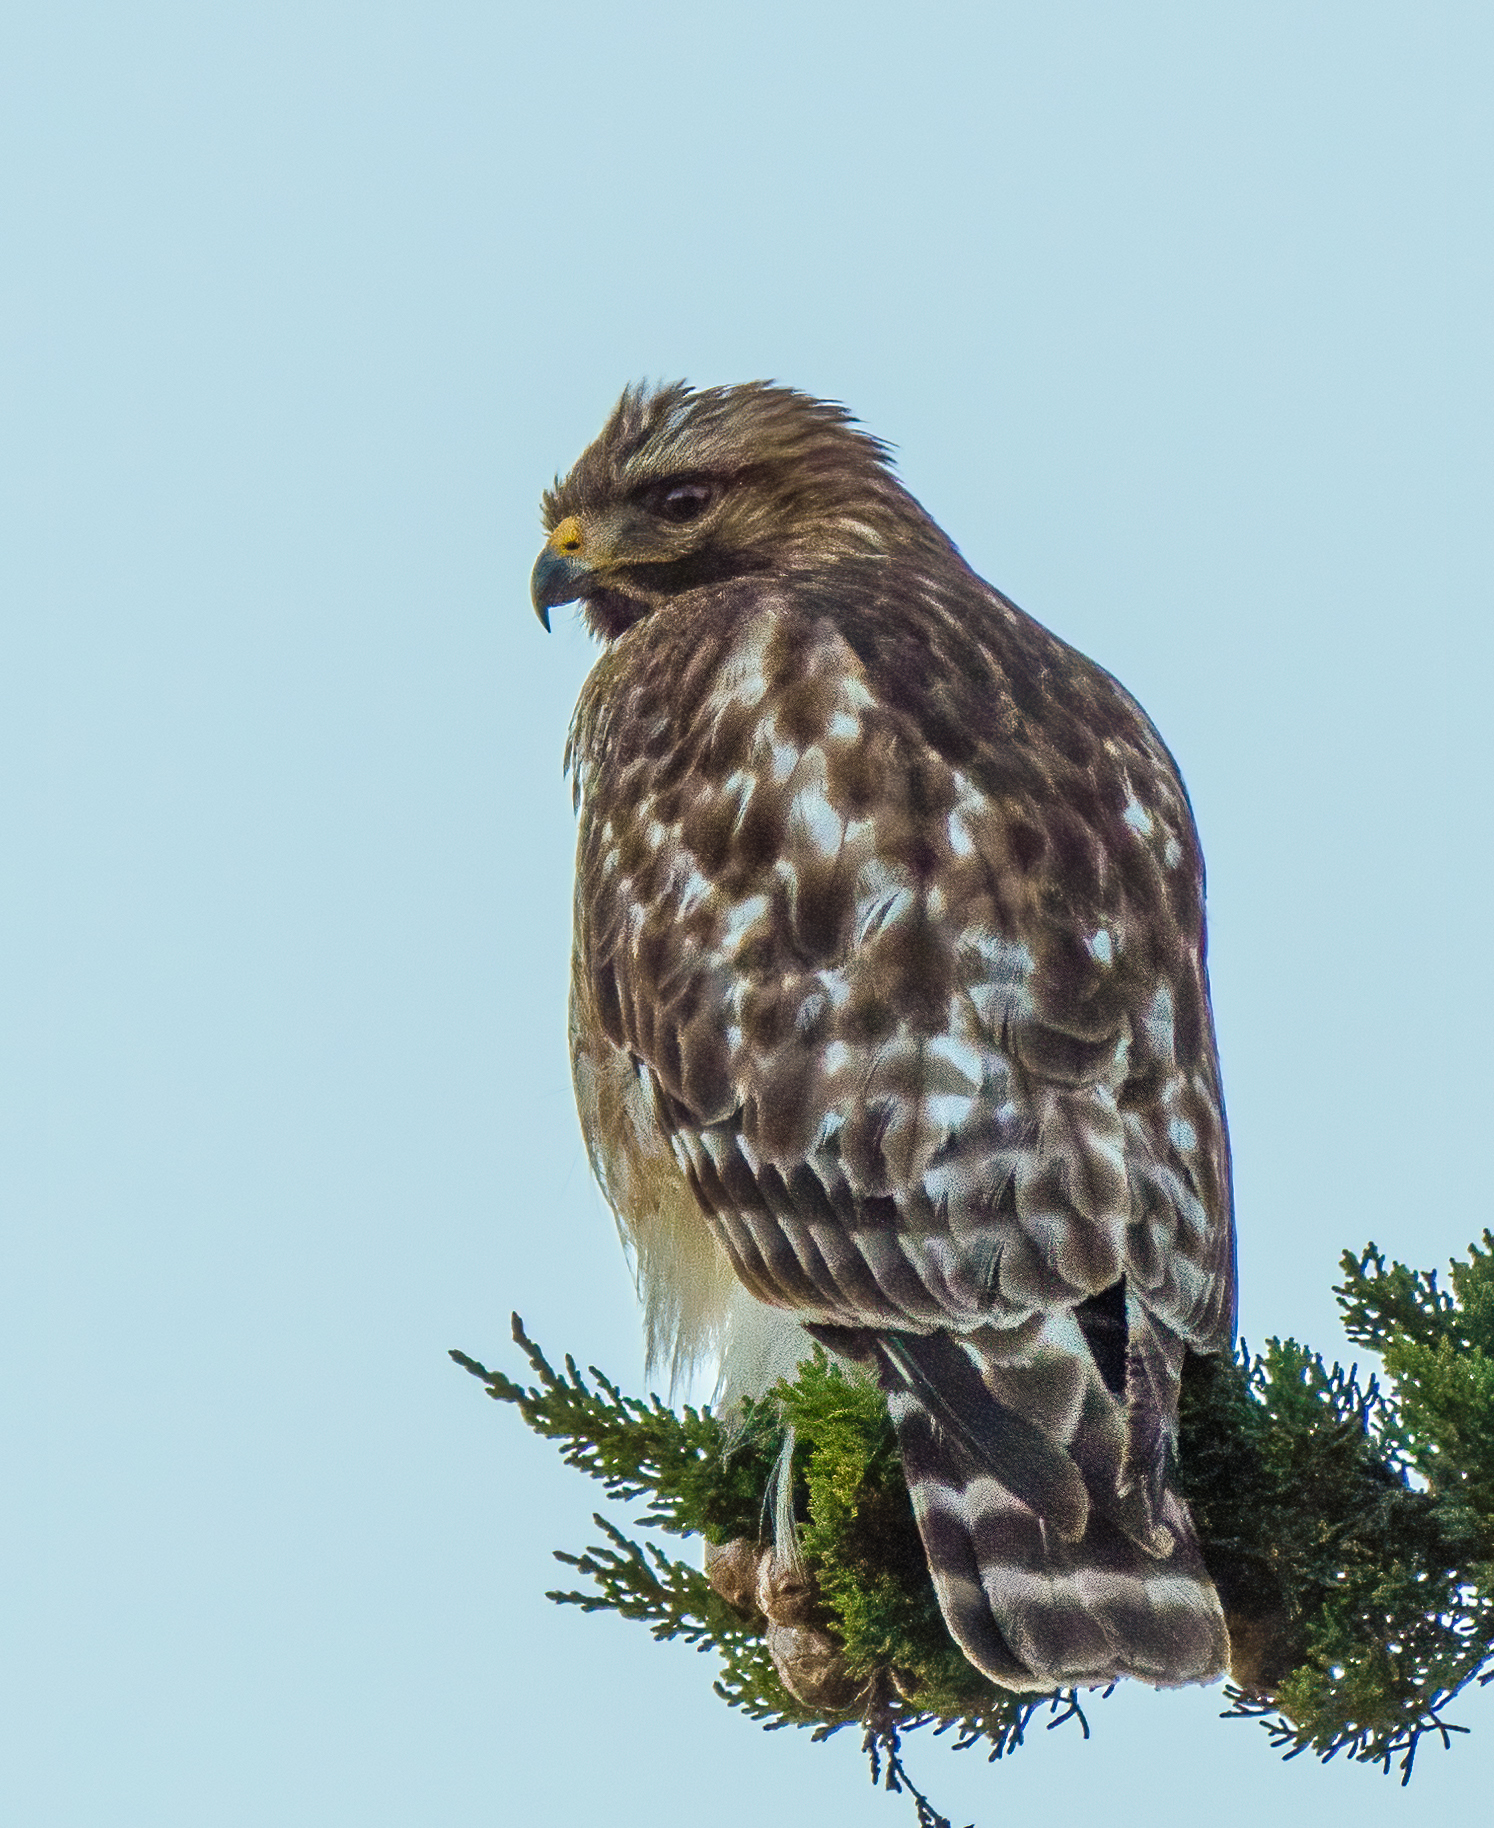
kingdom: Animalia
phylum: Chordata
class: Aves
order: Accipitriformes
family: Accipitridae
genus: Buteo
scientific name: Buteo lineatus
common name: Red-shouldered hawk
